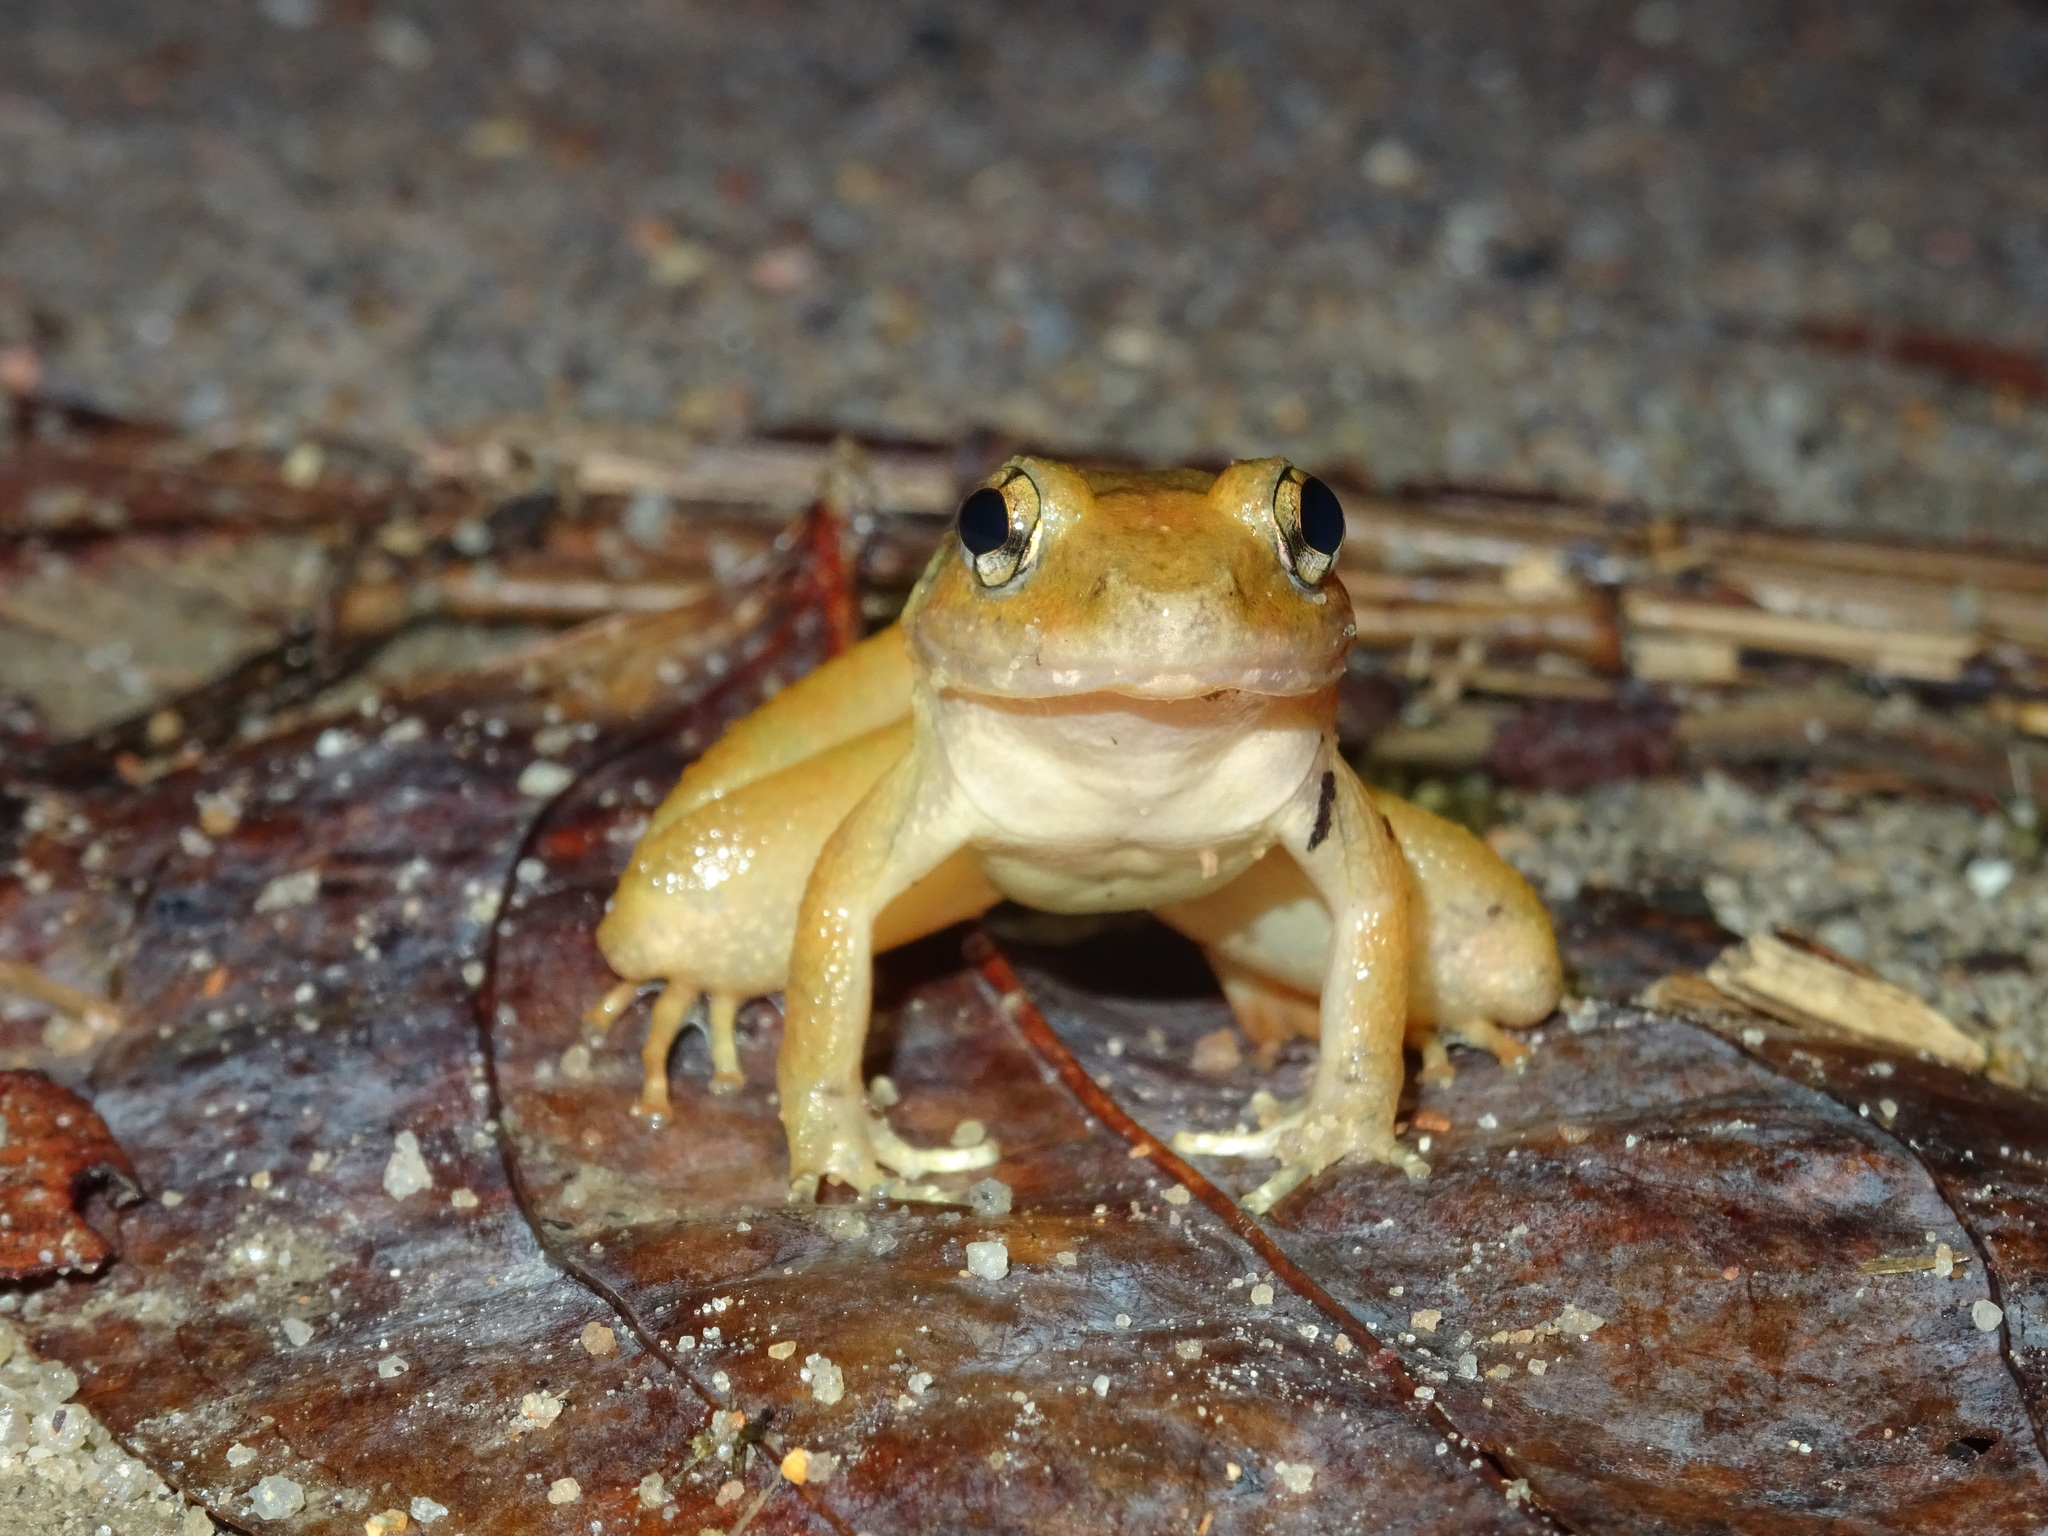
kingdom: Animalia
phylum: Chordata
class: Amphibia
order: Anura
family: Dicroglossidae
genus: Limnonectes
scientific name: Limnonectes doriae
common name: Burmese wart frog
